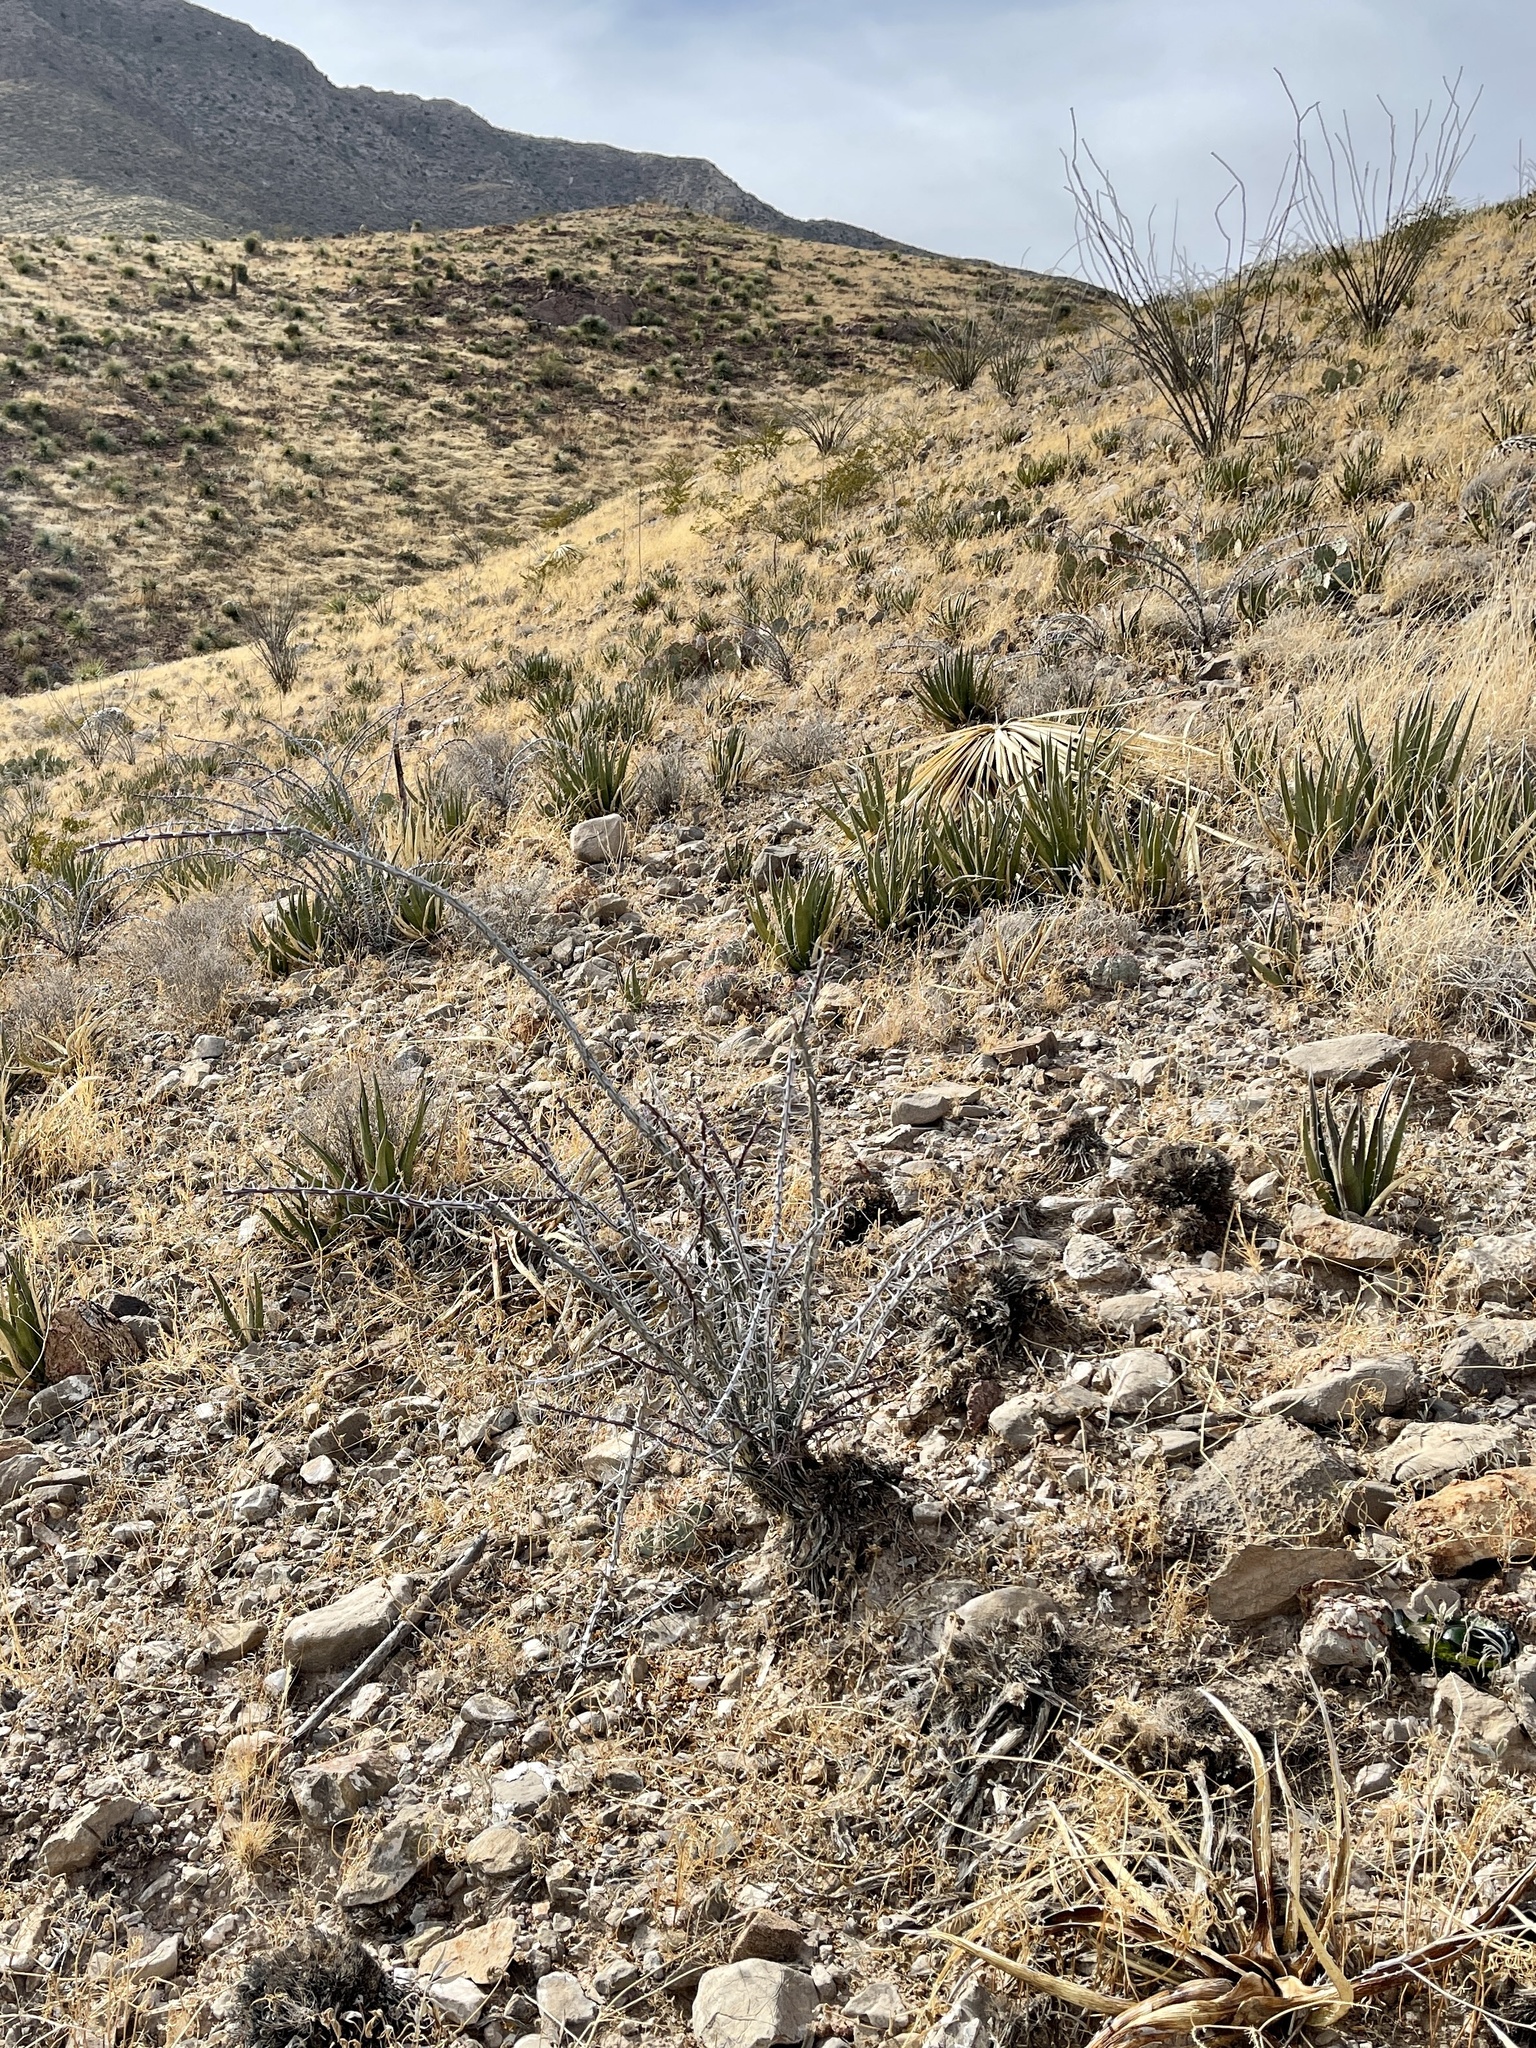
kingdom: Plantae
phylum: Tracheophyta
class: Magnoliopsida
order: Ericales
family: Fouquieriaceae
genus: Fouquieria
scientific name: Fouquieria splendens
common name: Vine-cactus
